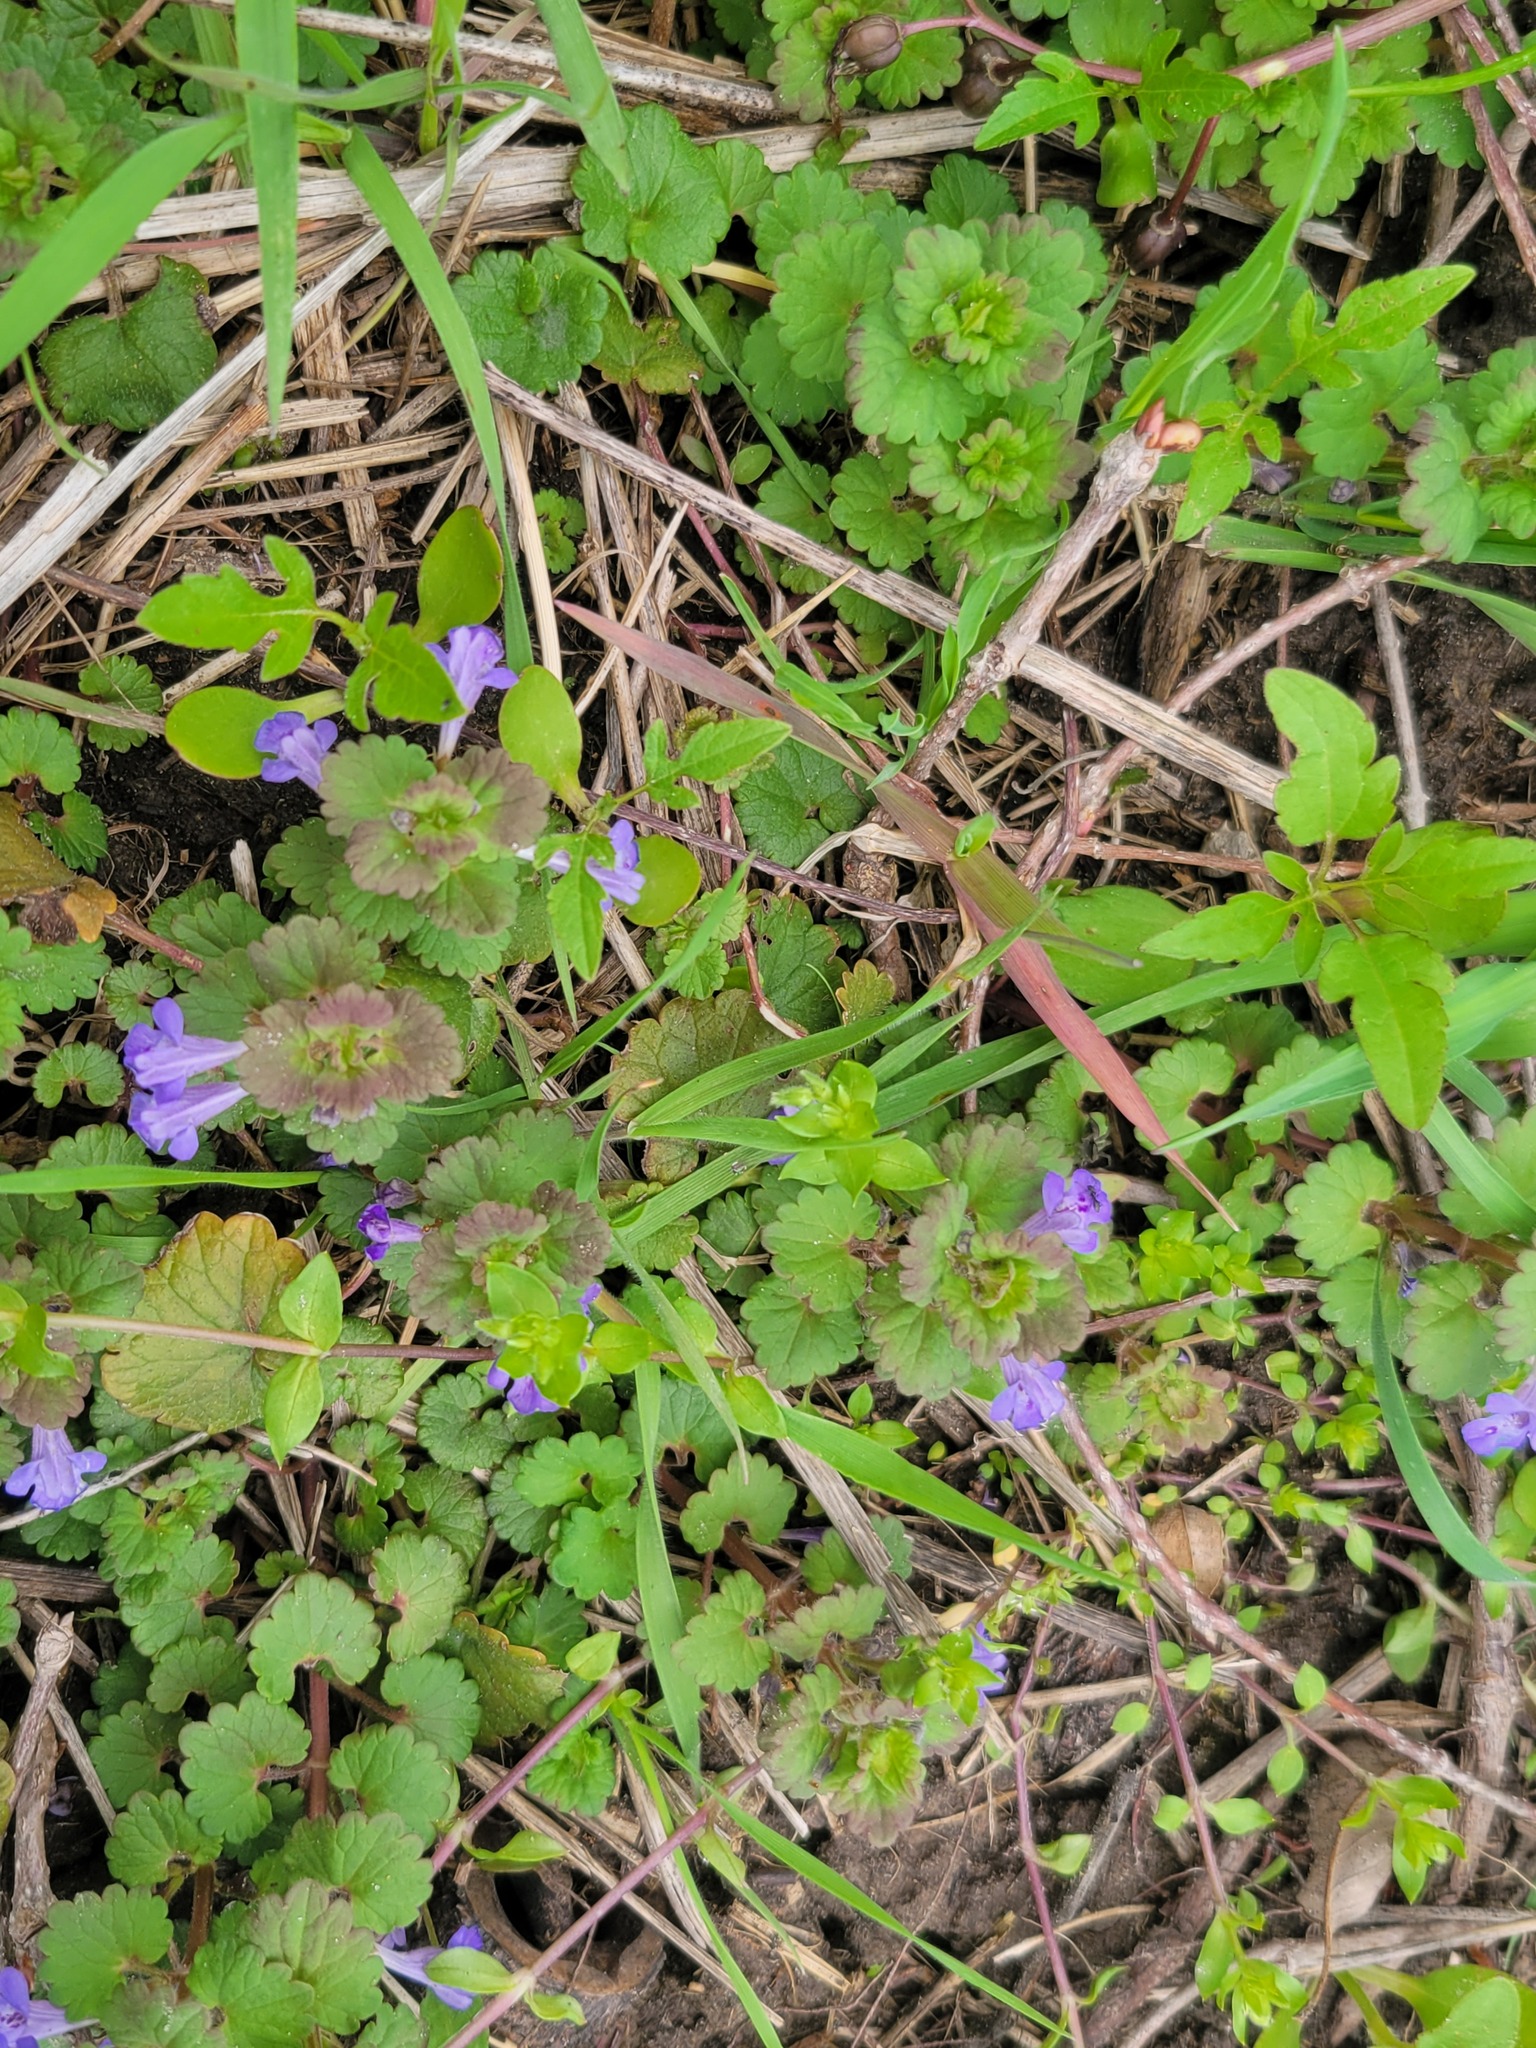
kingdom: Plantae
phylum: Tracheophyta
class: Magnoliopsida
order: Lamiales
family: Lamiaceae
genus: Glechoma
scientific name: Glechoma hederacea
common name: Ground ivy
